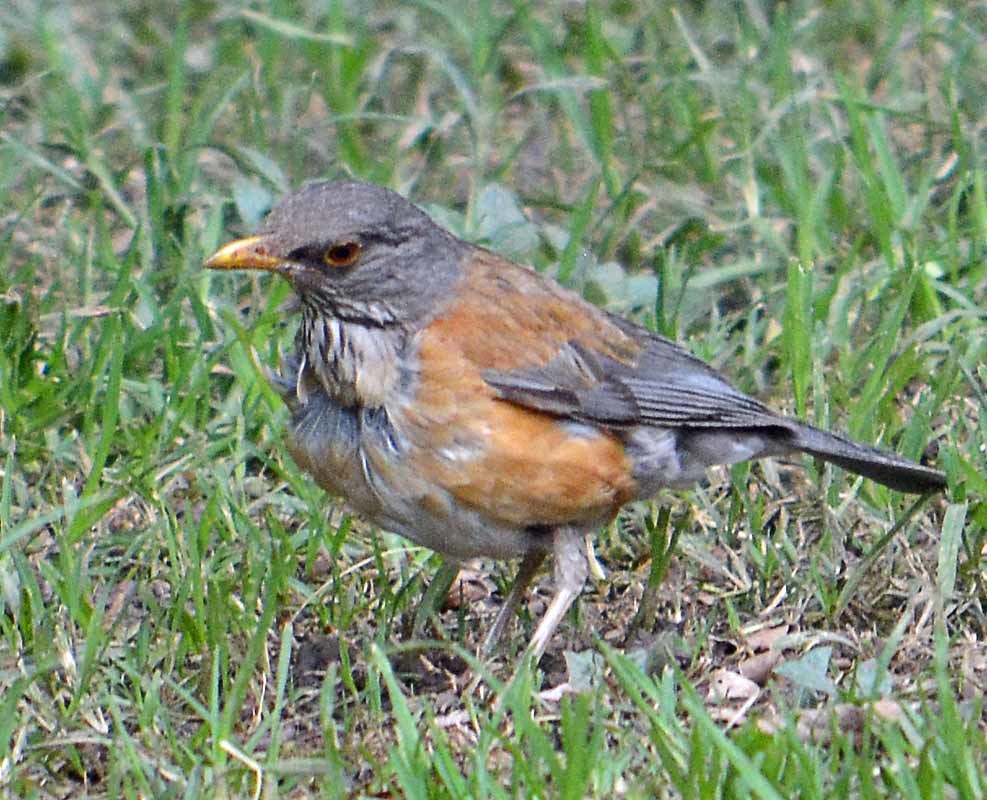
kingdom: Animalia
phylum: Chordata
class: Aves
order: Passeriformes
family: Turdidae
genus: Turdus
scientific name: Turdus rufopalliatus
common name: Rufous-backed robin
